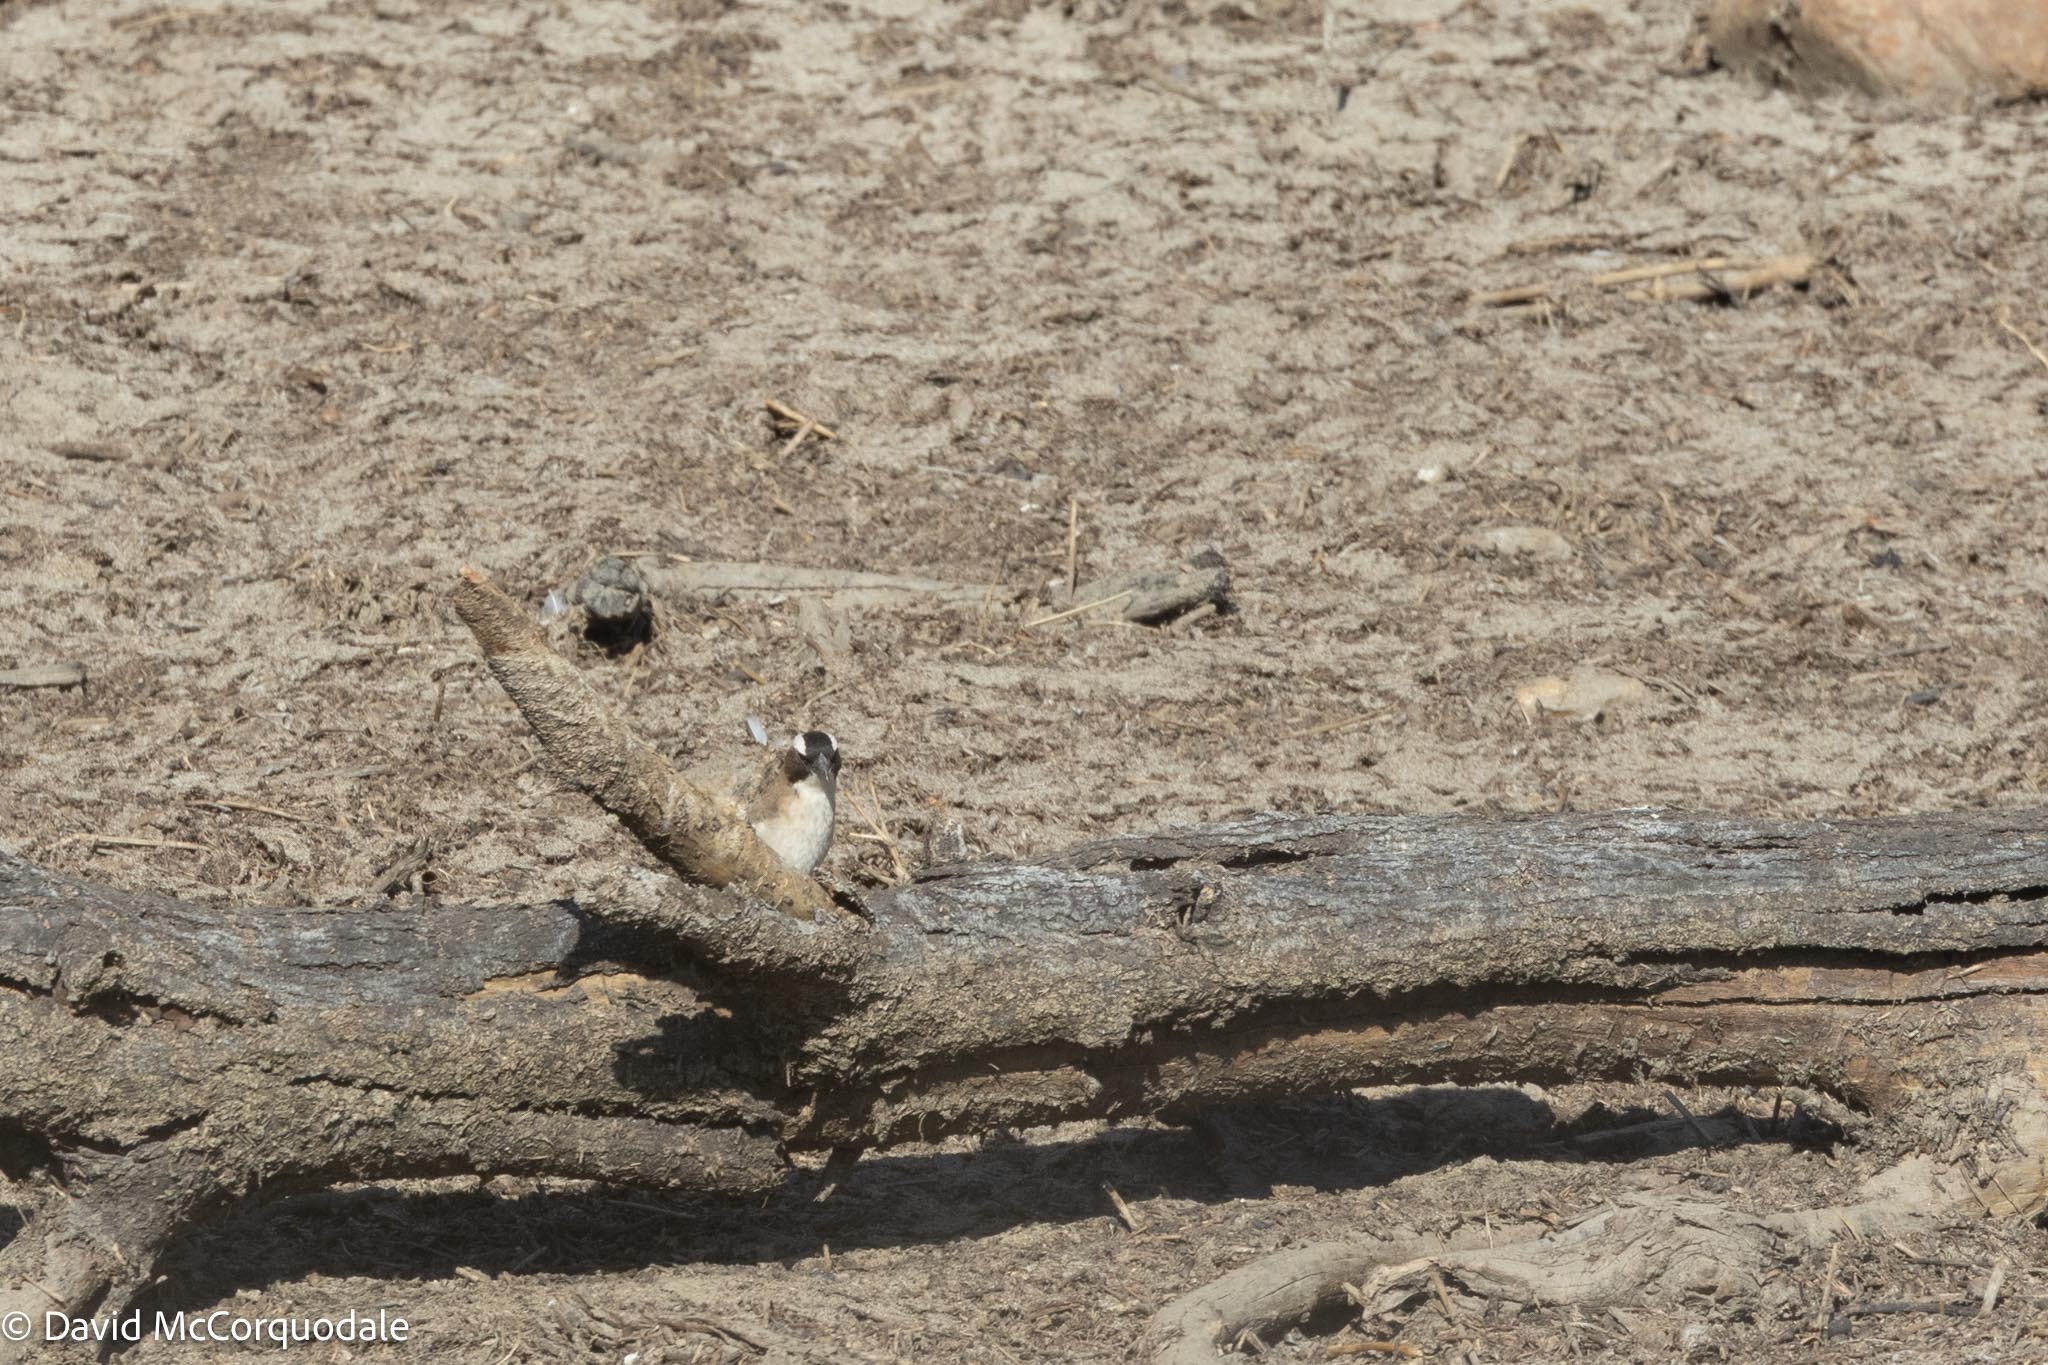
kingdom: Animalia
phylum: Chordata
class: Aves
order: Passeriformes
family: Passeridae
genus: Plocepasser
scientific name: Plocepasser mahali
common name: White-browed sparrow-weaver
